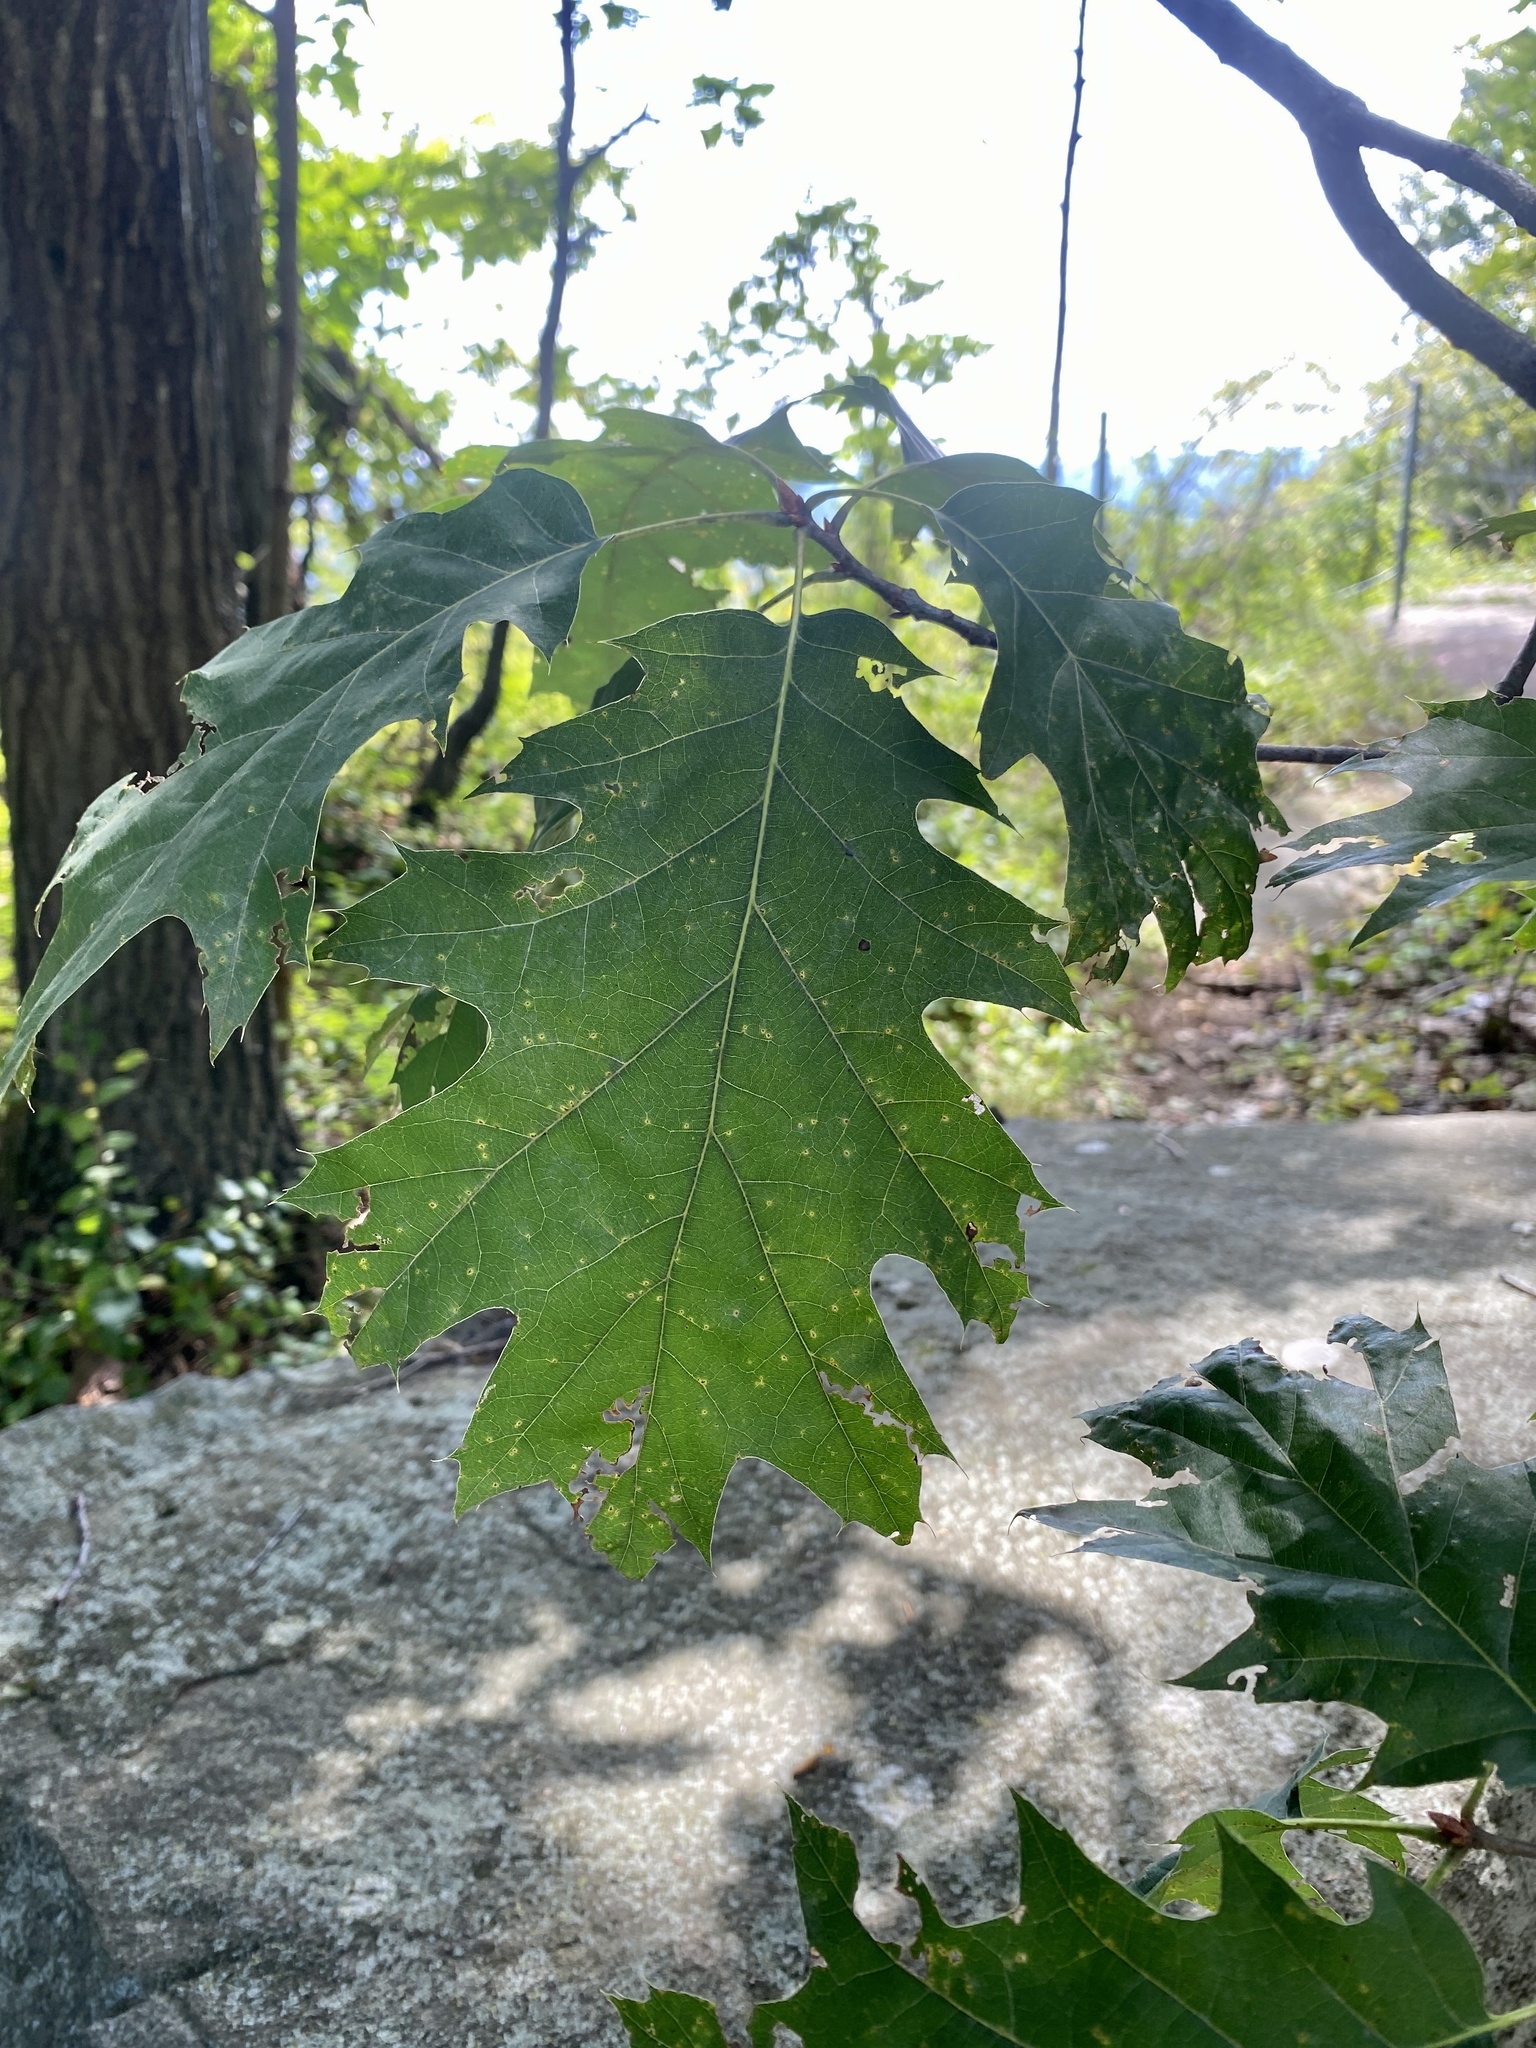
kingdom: Plantae
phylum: Tracheophyta
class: Magnoliopsida
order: Fagales
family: Fagaceae
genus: Quercus
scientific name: Quercus rubra
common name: Red oak
